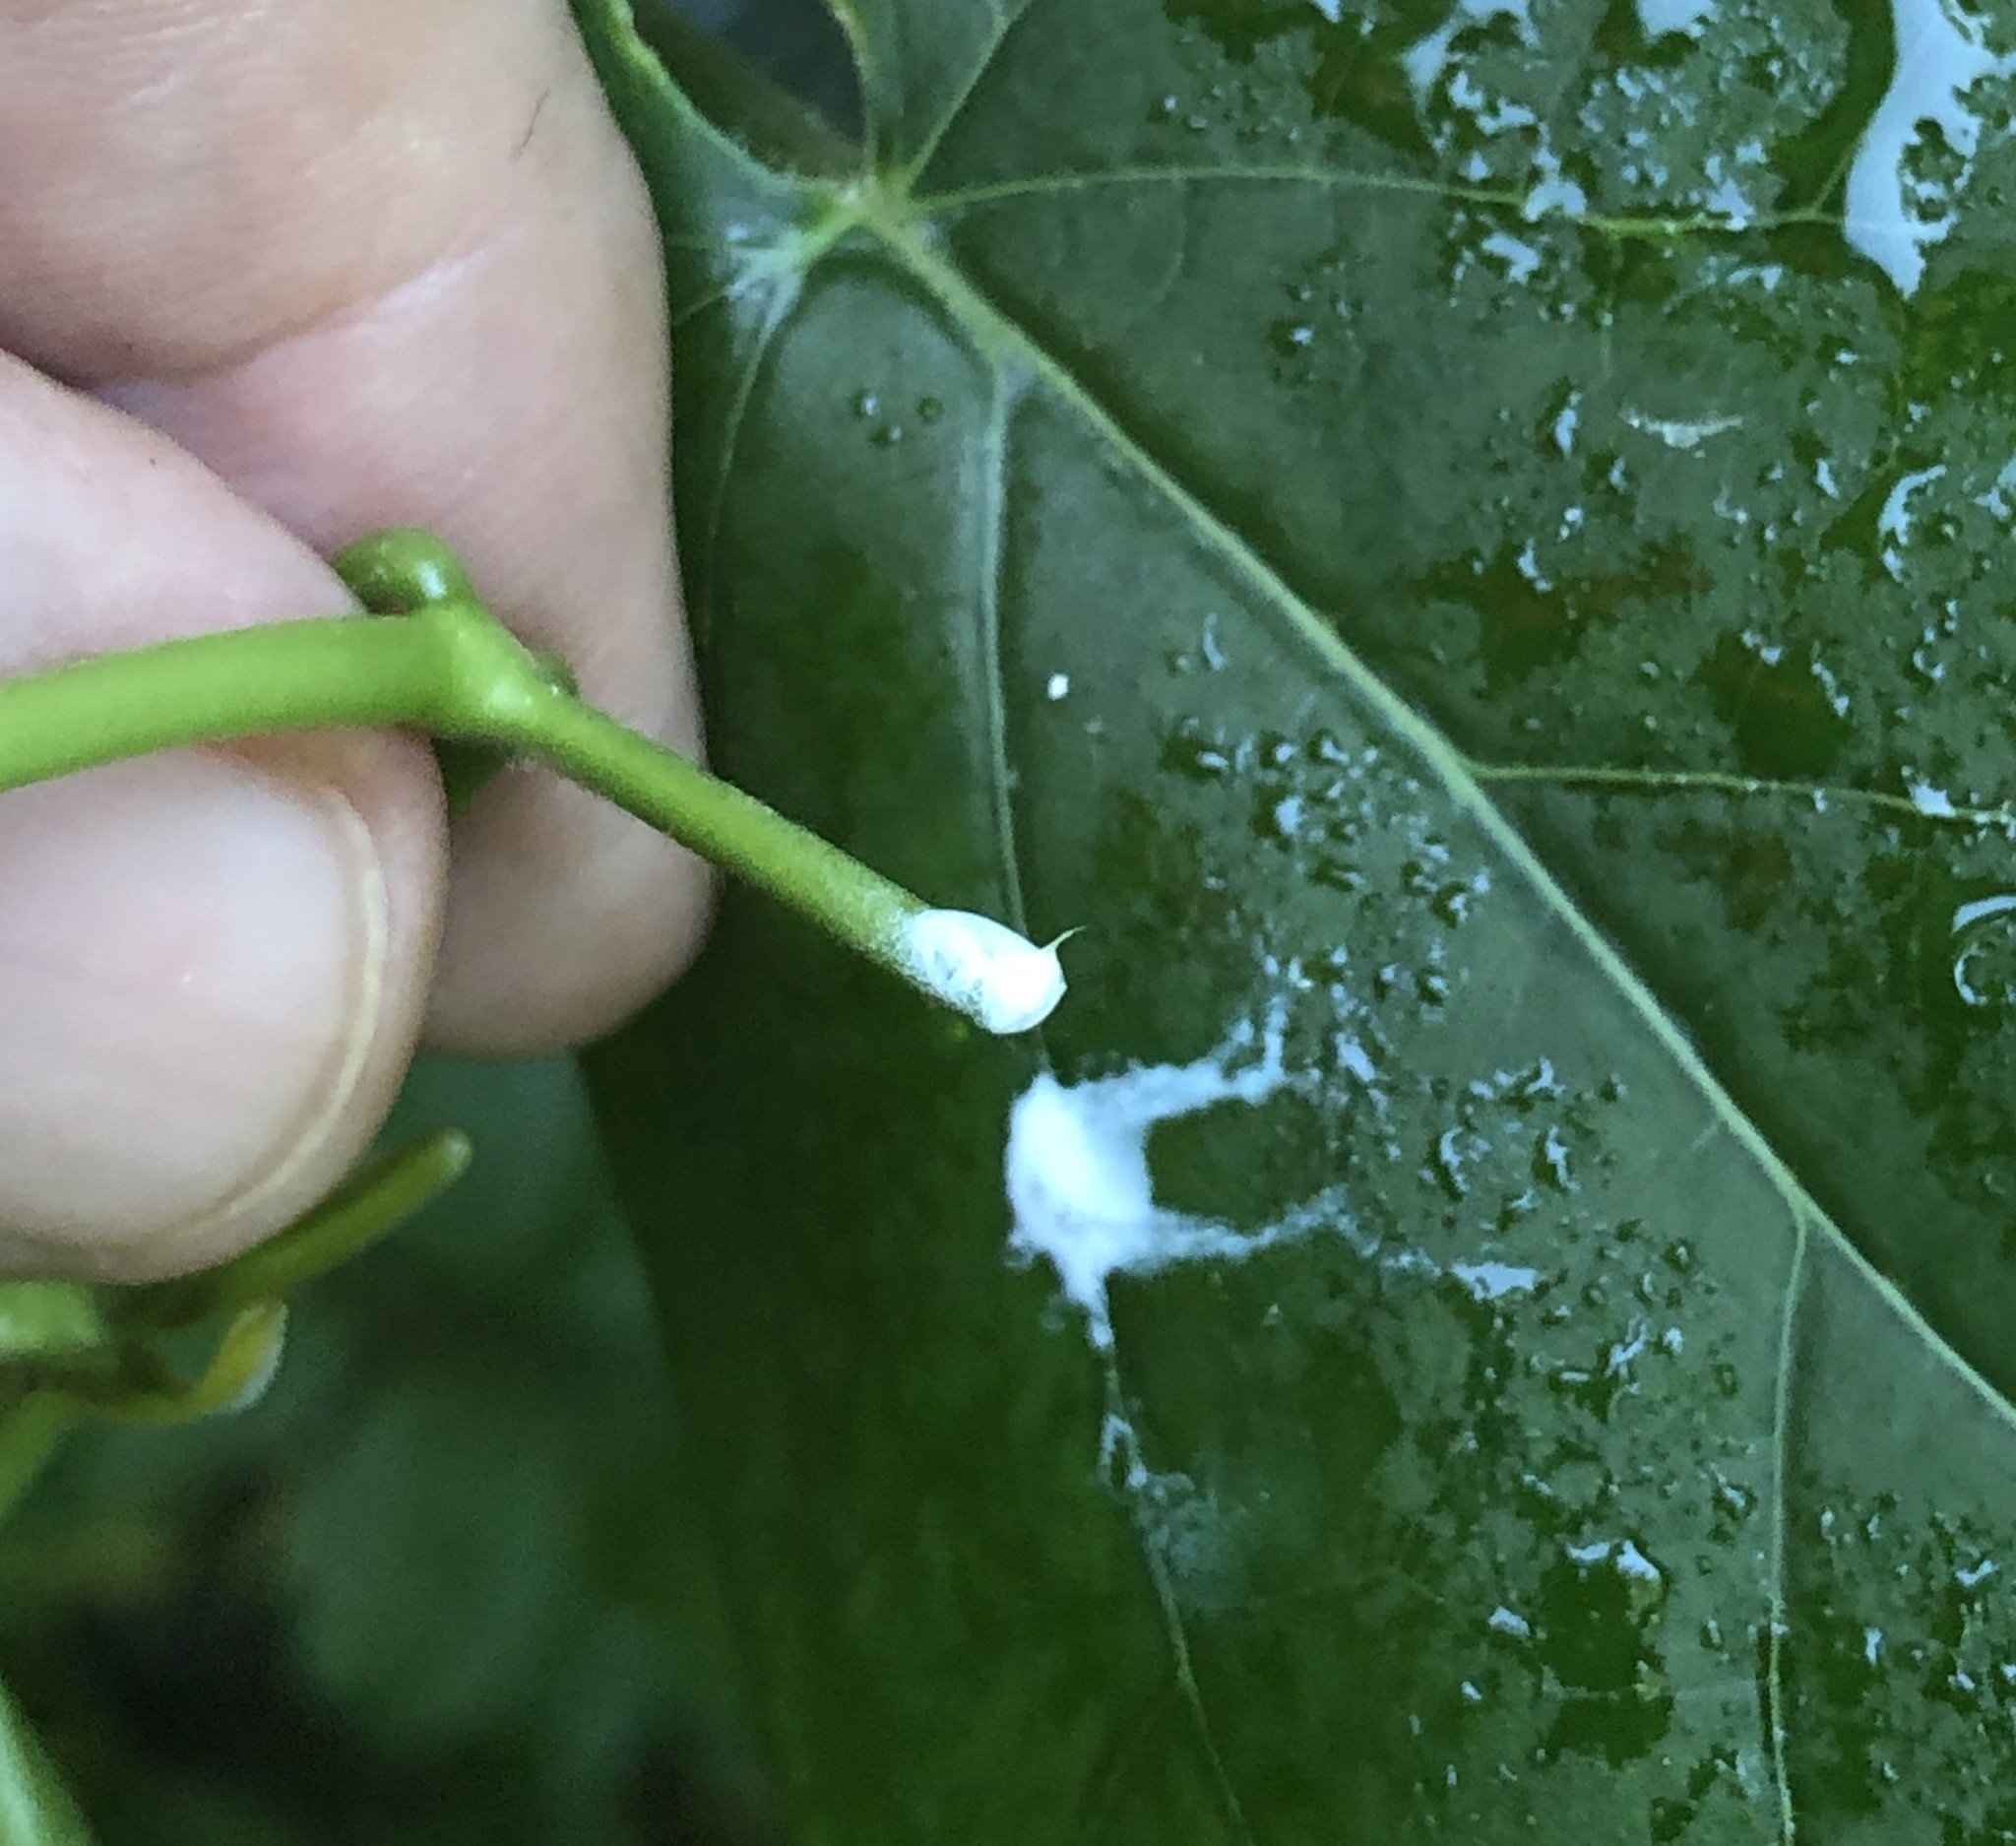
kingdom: Plantae
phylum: Tracheophyta
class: Magnoliopsida
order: Gentianales
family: Apocynaceae
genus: Gonolobus
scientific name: Gonolobus suberosus
